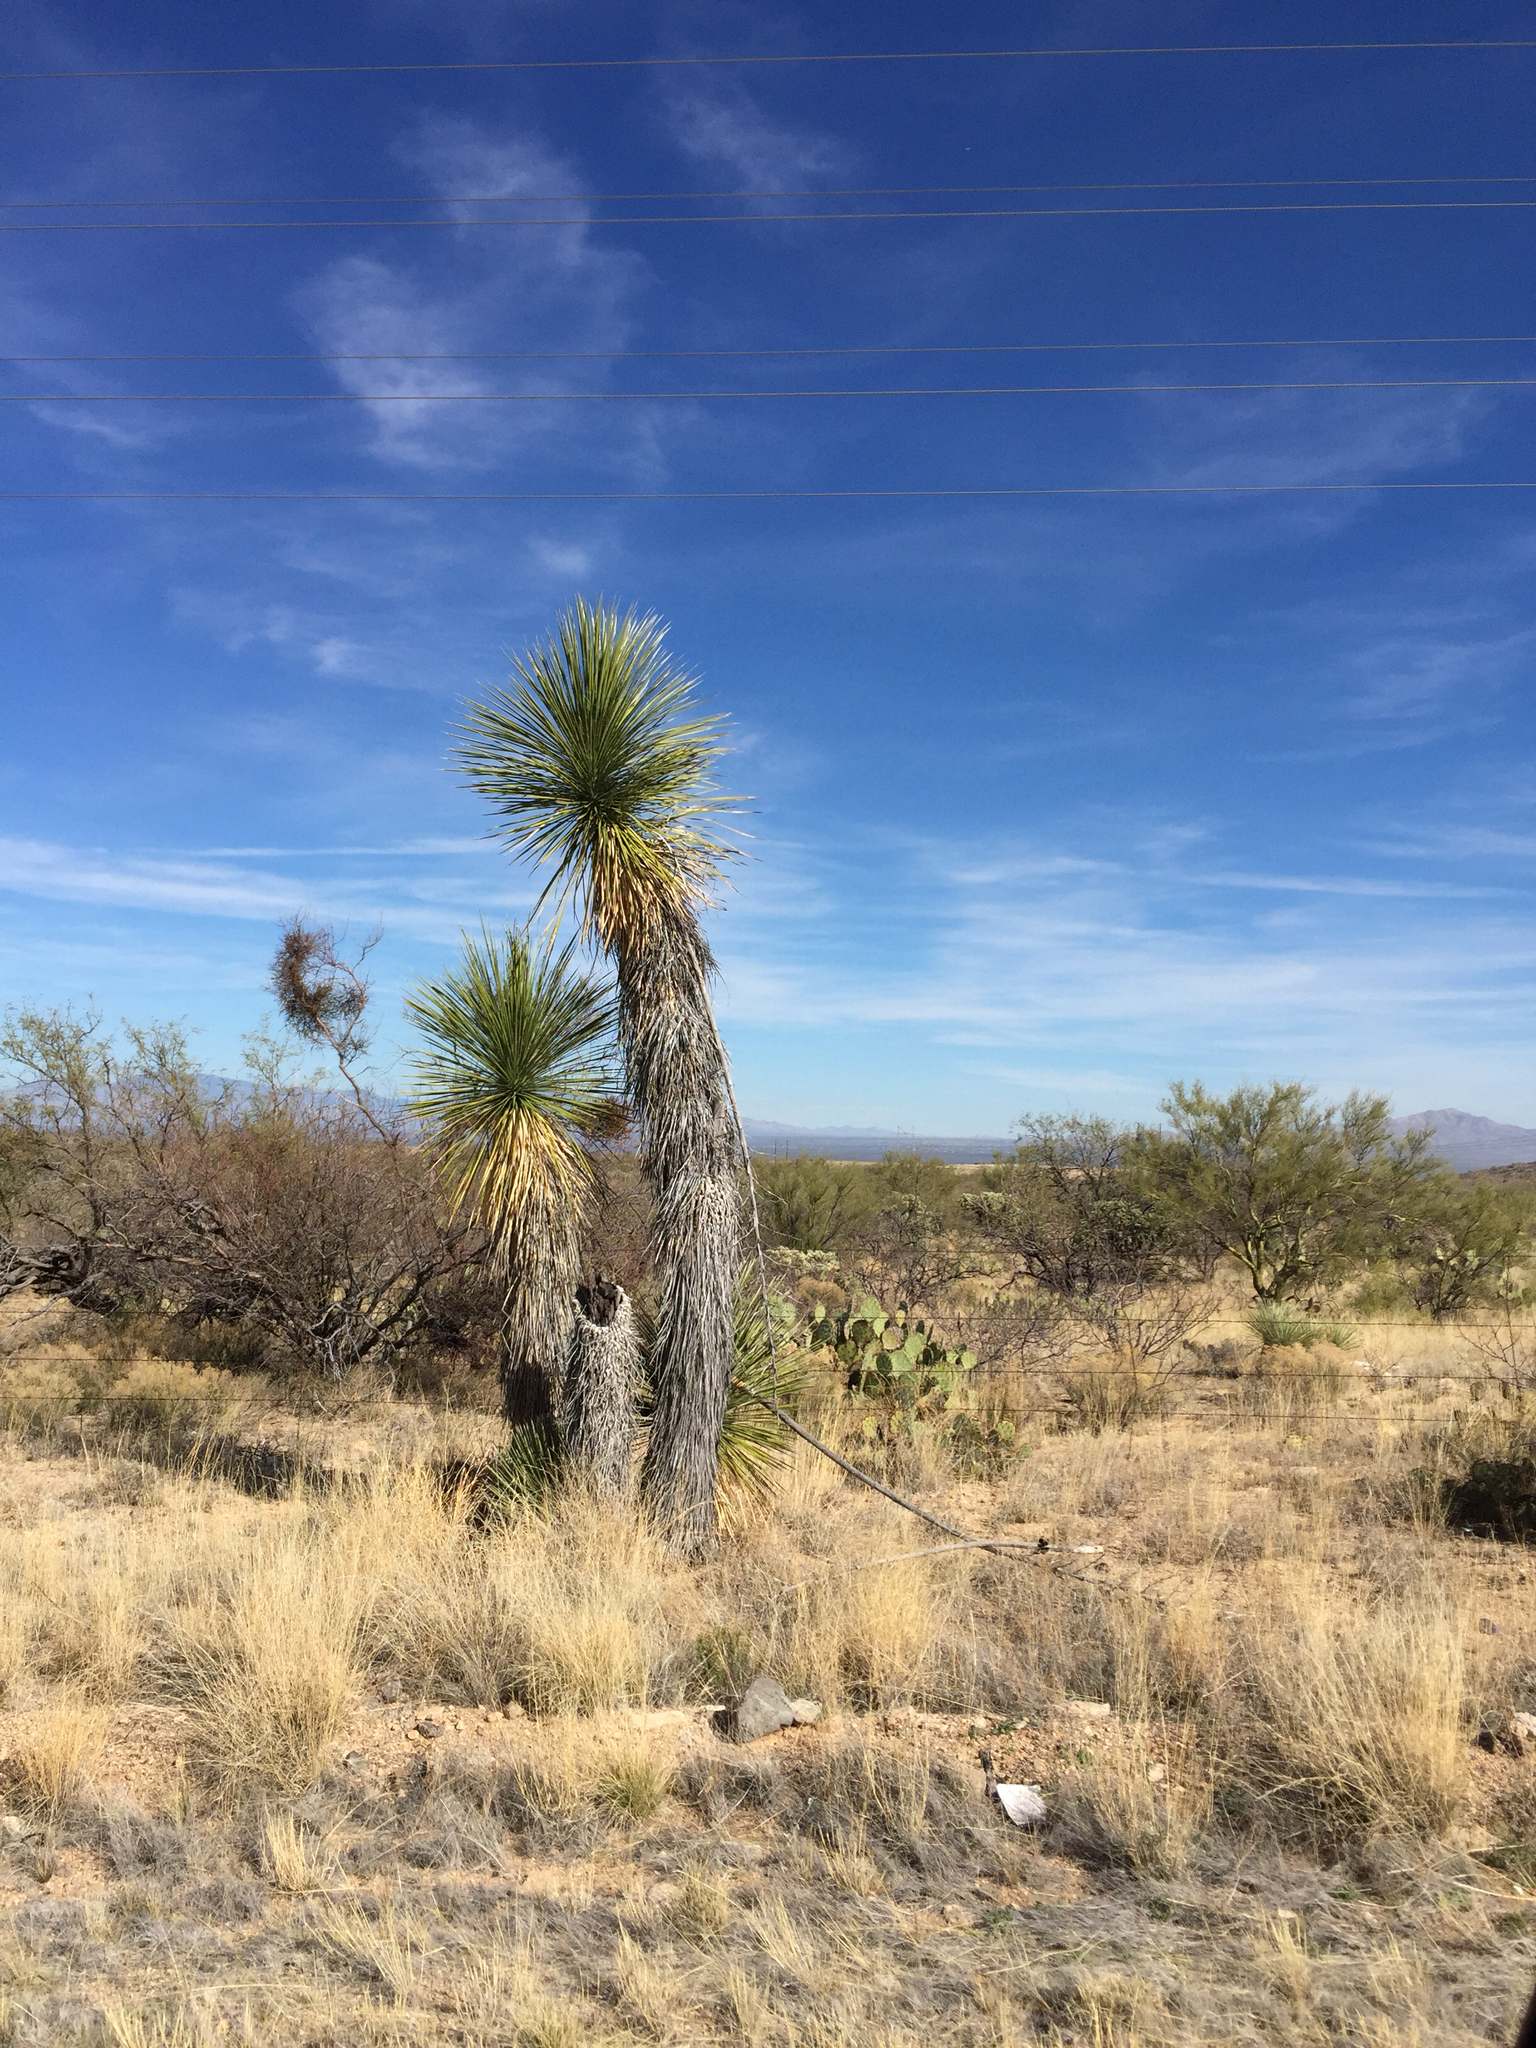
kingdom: Plantae
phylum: Tracheophyta
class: Liliopsida
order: Asparagales
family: Asparagaceae
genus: Yucca
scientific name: Yucca elata
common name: Palmella
